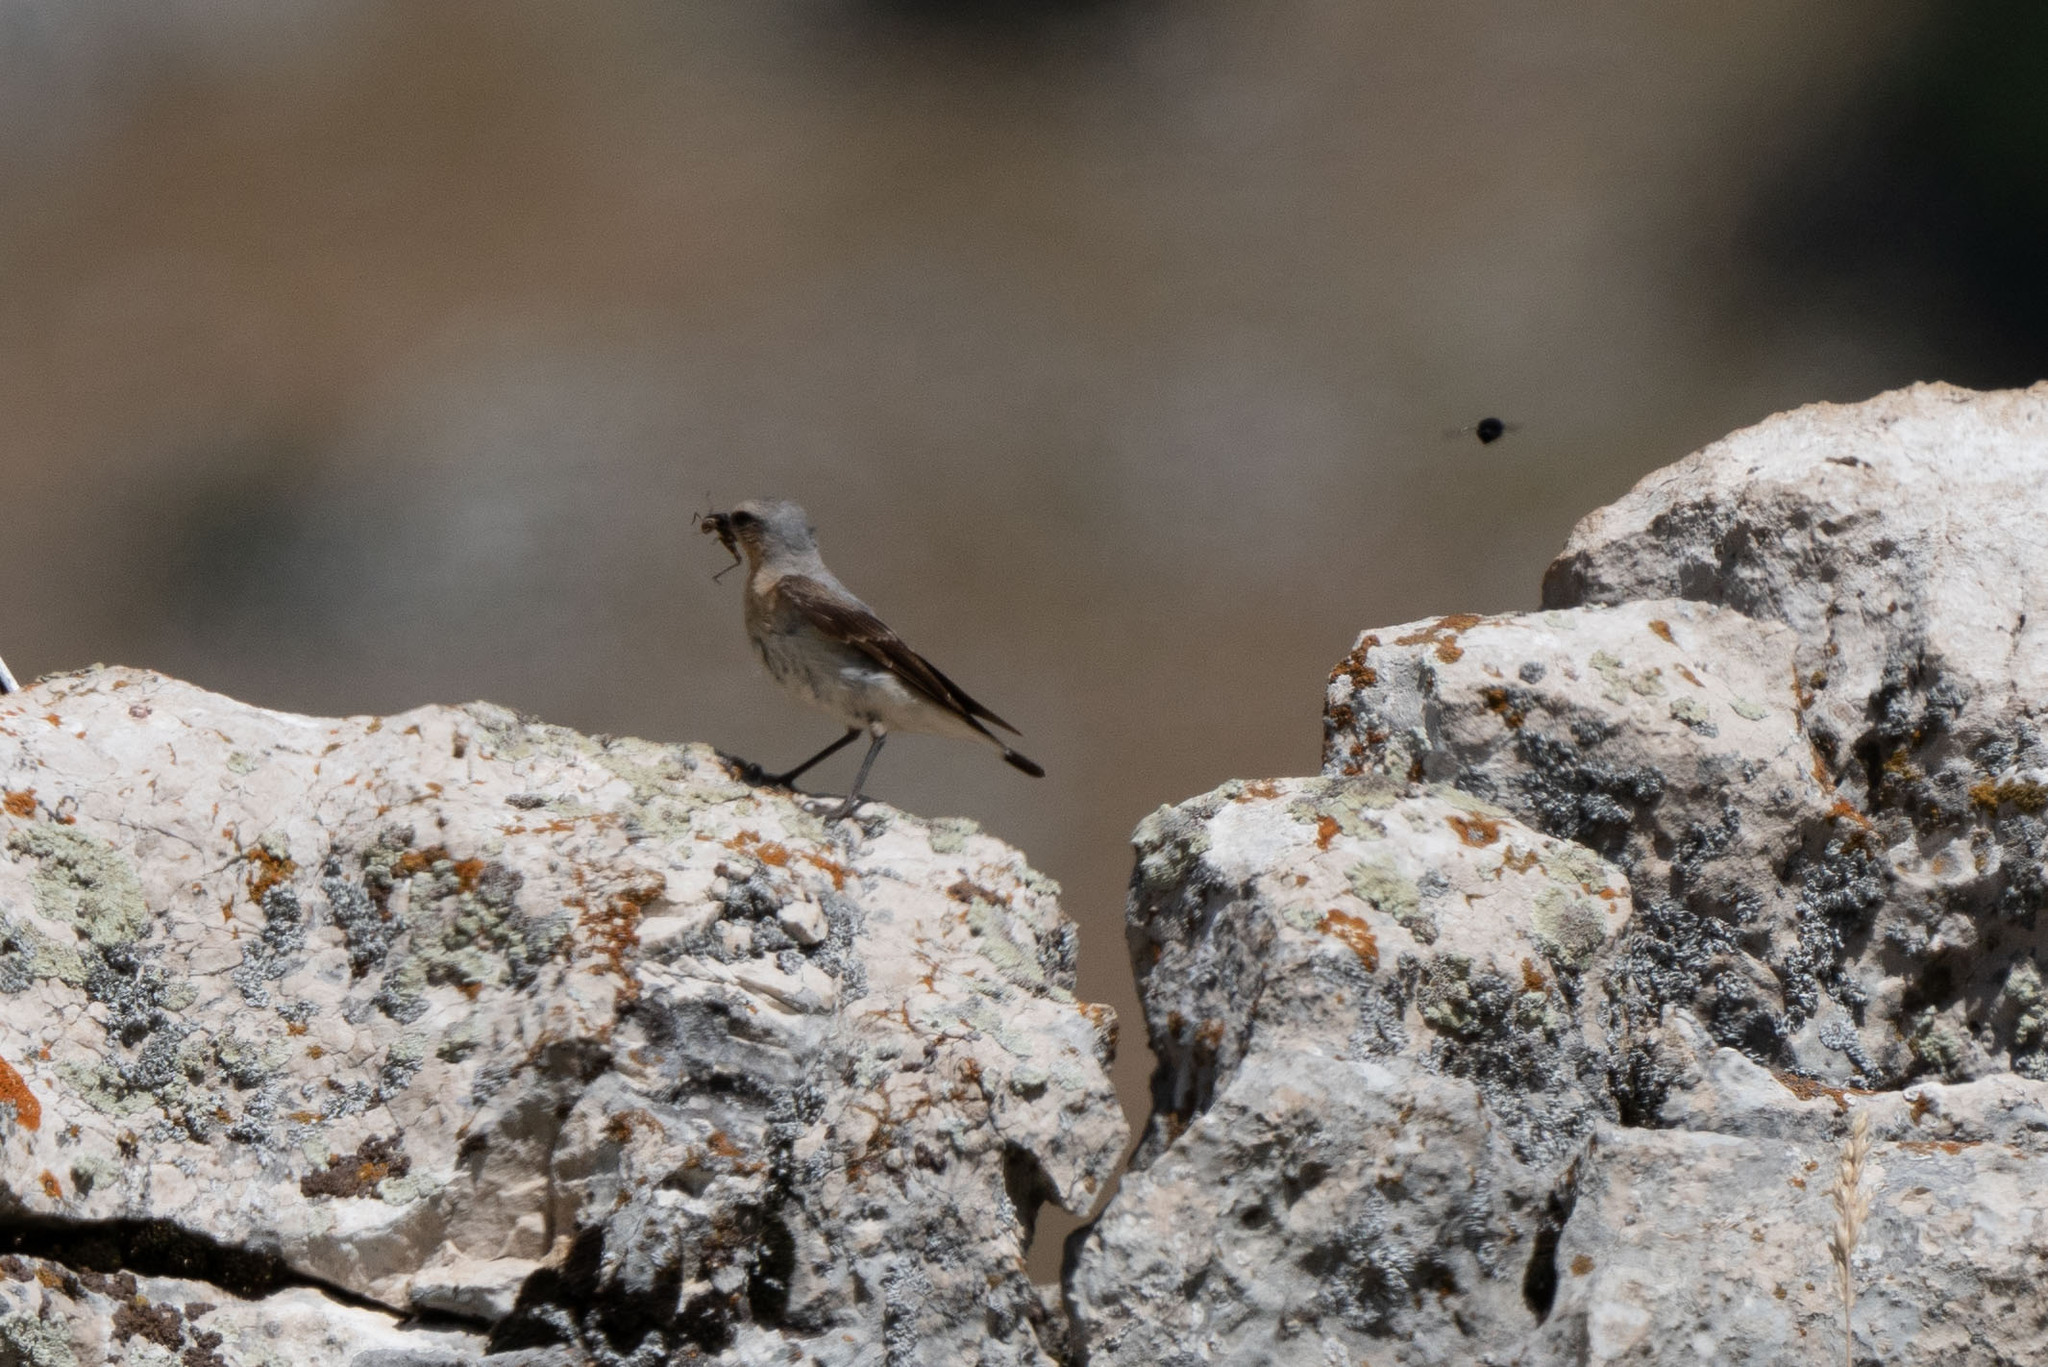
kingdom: Animalia
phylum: Chordata
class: Aves
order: Passeriformes
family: Muscicapidae
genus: Oenanthe
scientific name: Oenanthe oenanthe
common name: Northern wheatear
